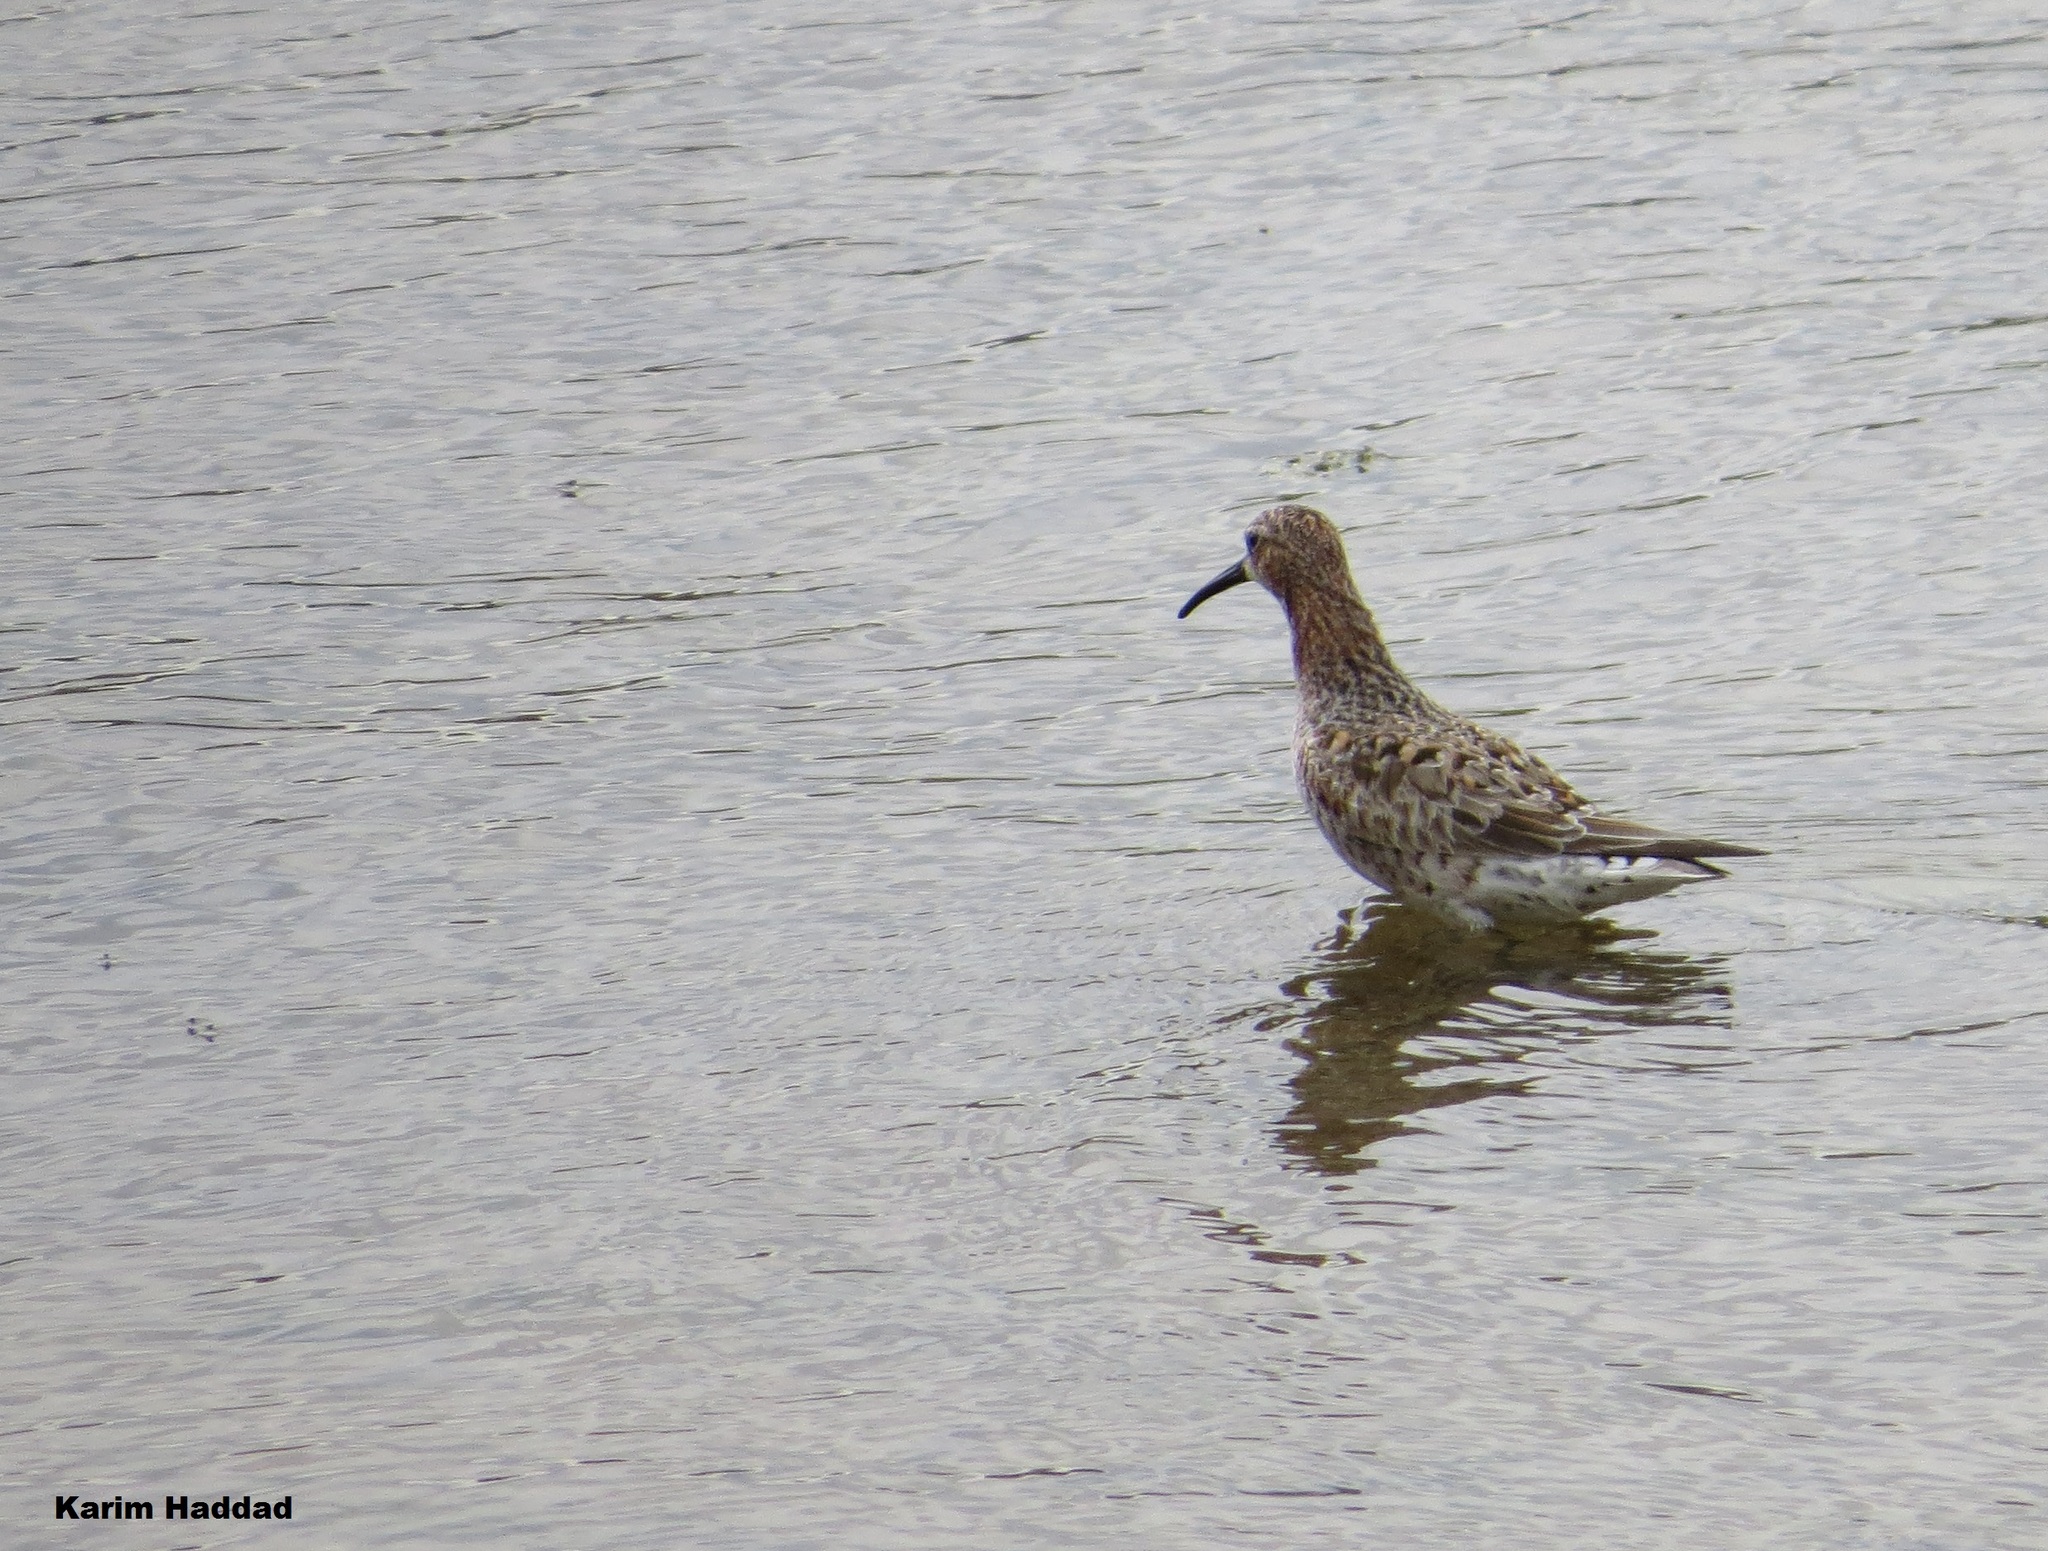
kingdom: Animalia
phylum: Chordata
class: Aves
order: Charadriiformes
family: Scolopacidae
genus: Calidris
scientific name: Calidris ferruginea
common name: Curlew sandpiper
